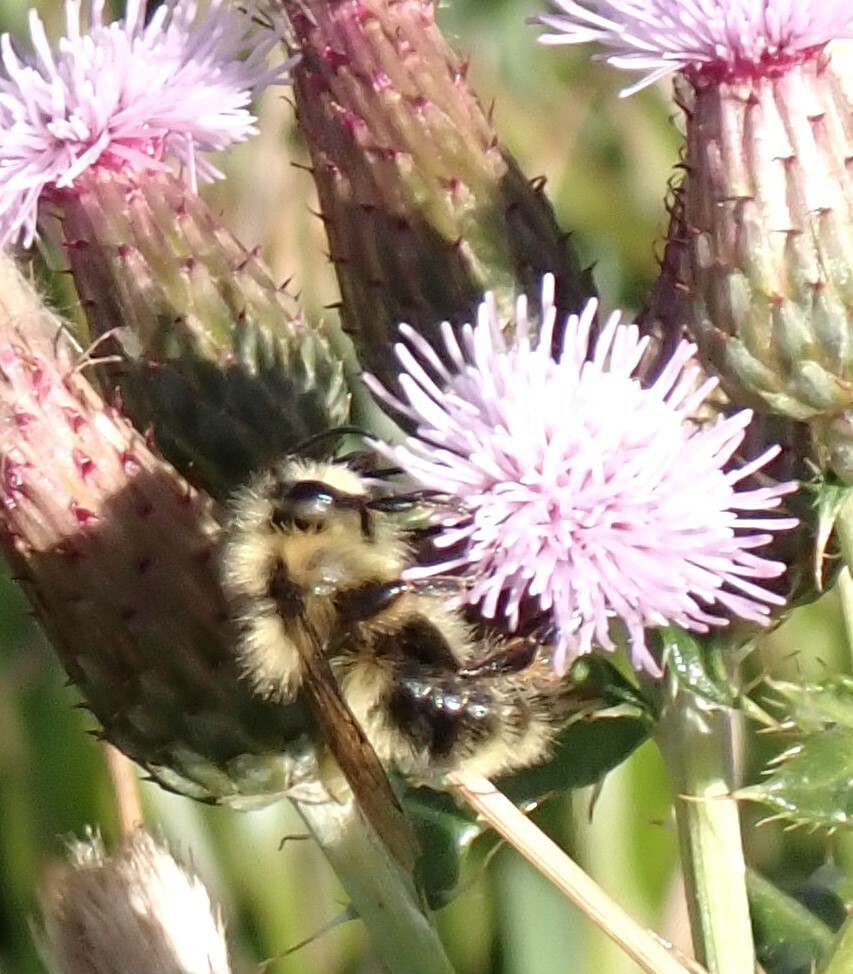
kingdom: Animalia
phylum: Arthropoda
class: Insecta
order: Hymenoptera
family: Apidae
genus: Bombus
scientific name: Bombus vancouverensis
